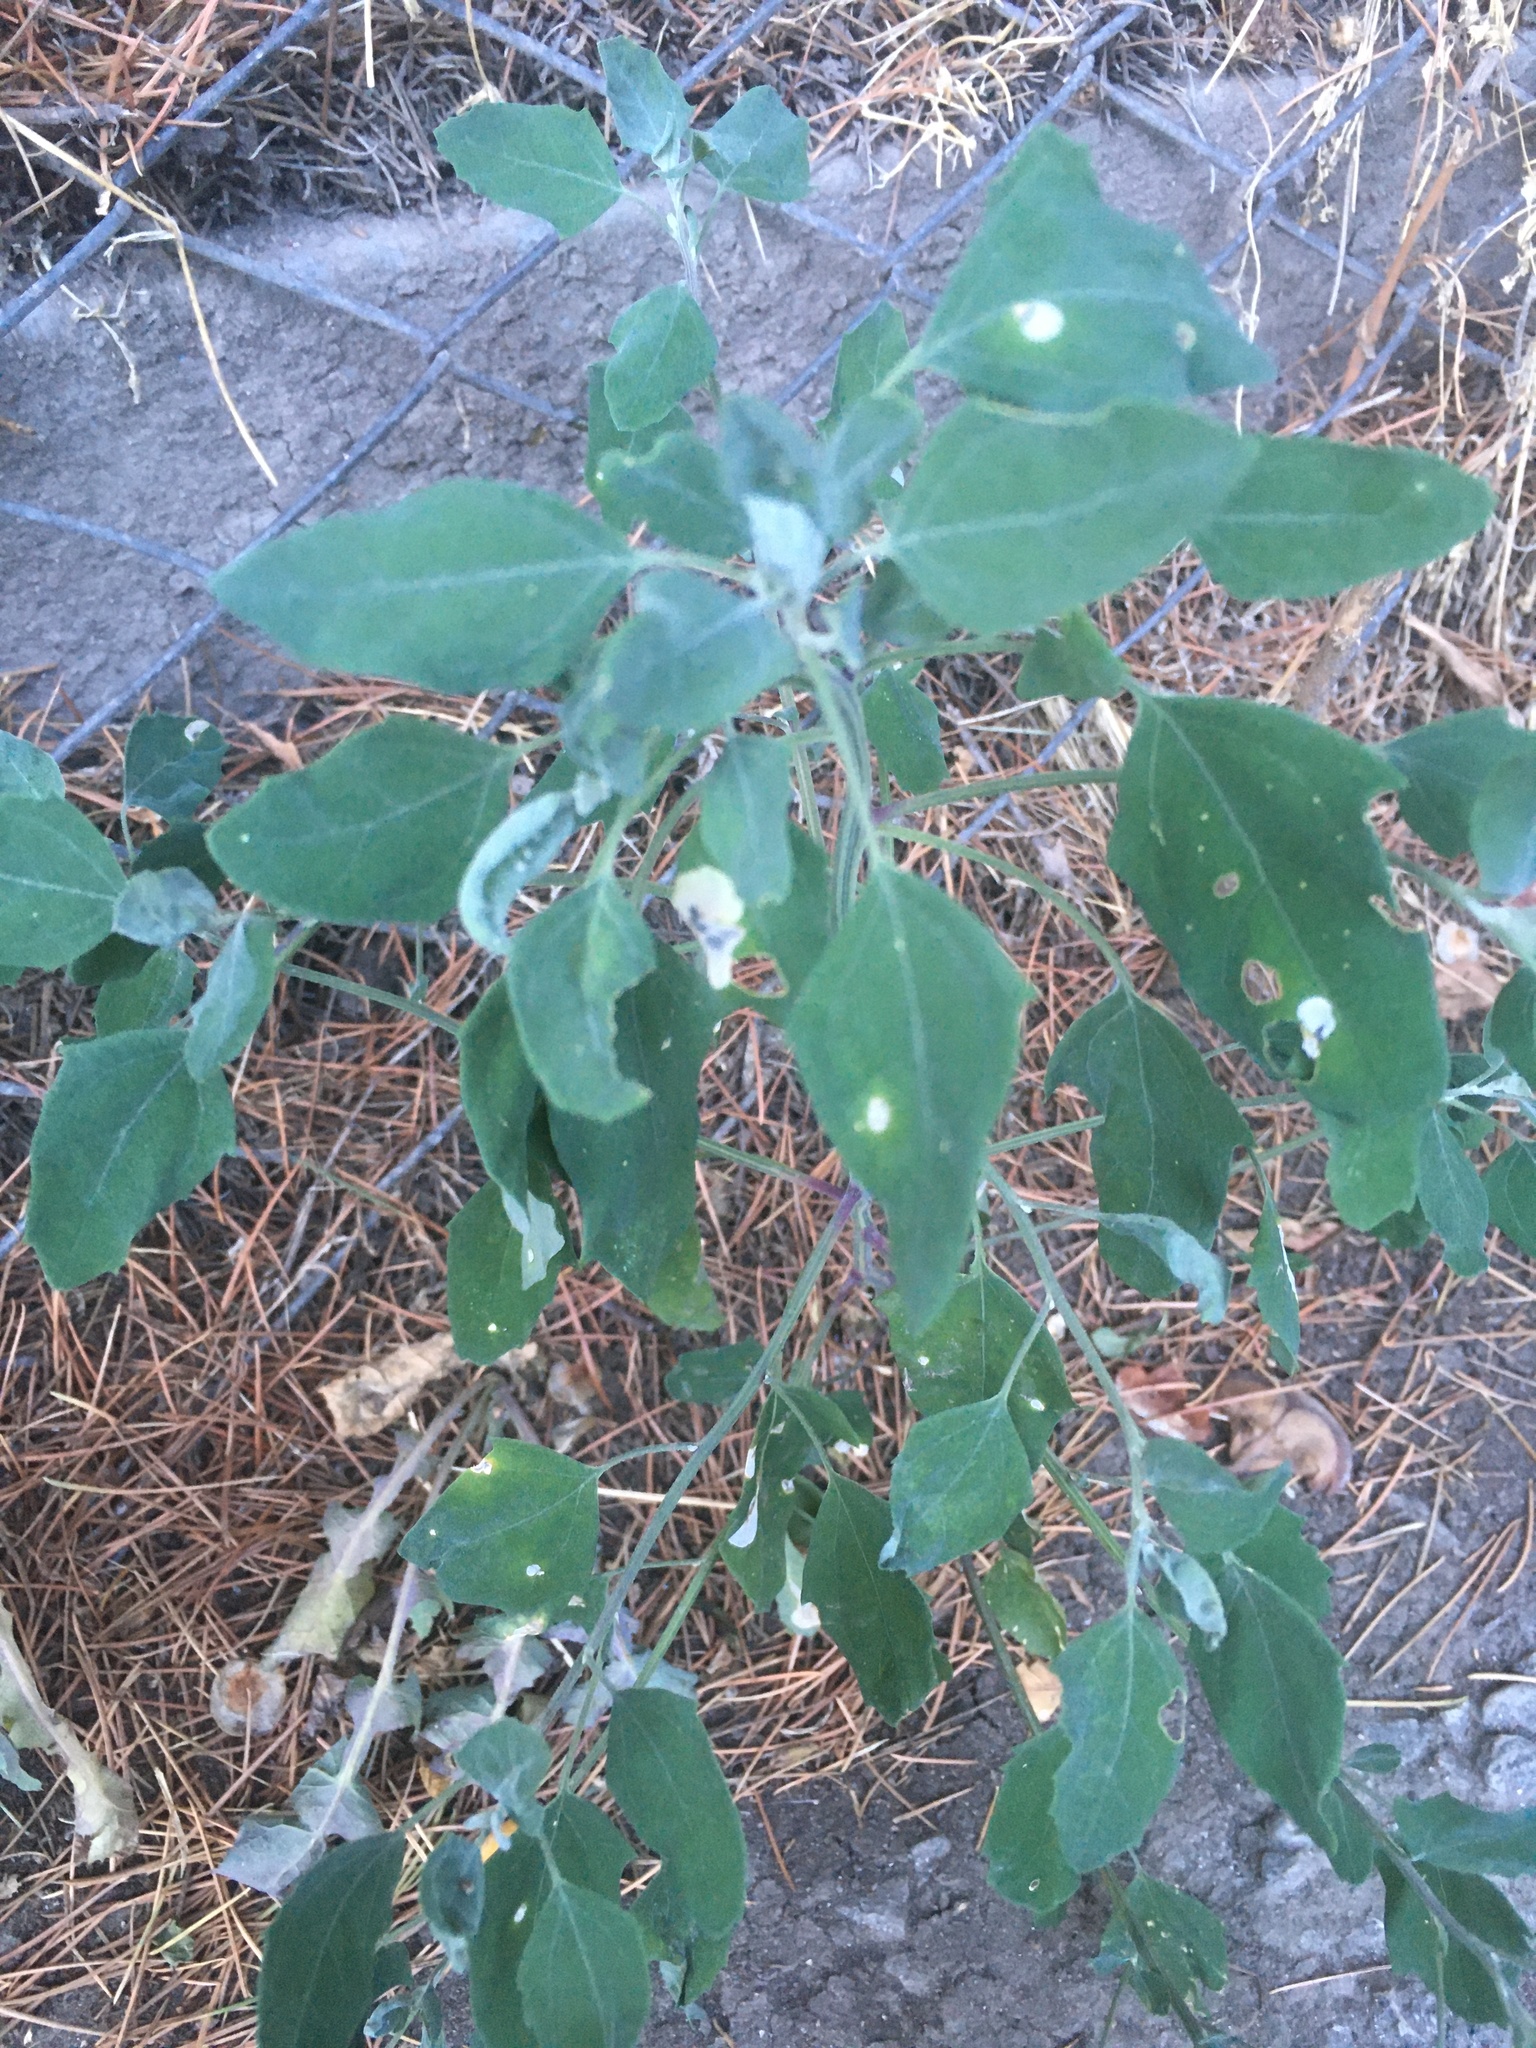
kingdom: Plantae
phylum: Tracheophyta
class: Magnoliopsida
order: Caryophyllales
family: Amaranthaceae
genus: Chenopodium
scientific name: Chenopodium album
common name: Fat-hen
